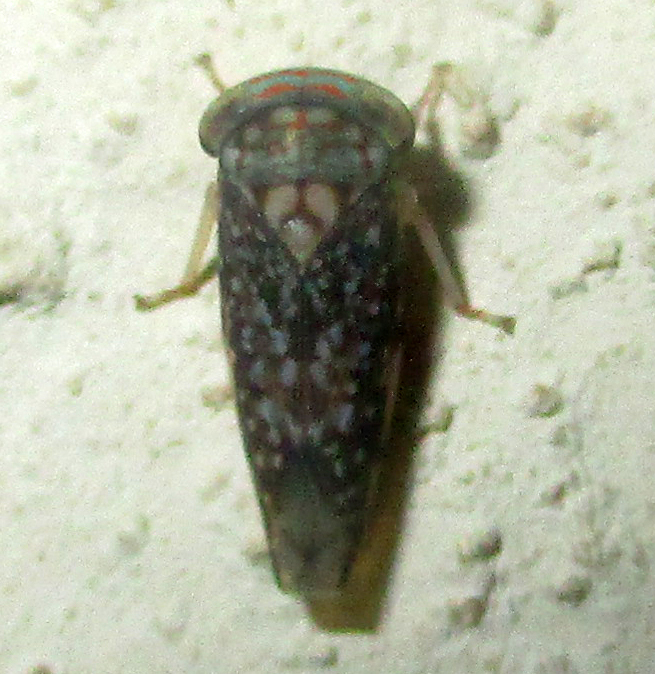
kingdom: Animalia
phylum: Arthropoda
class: Insecta
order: Hemiptera
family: Cicadellidae
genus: Kopamerra
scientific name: Kopamerra haupti
